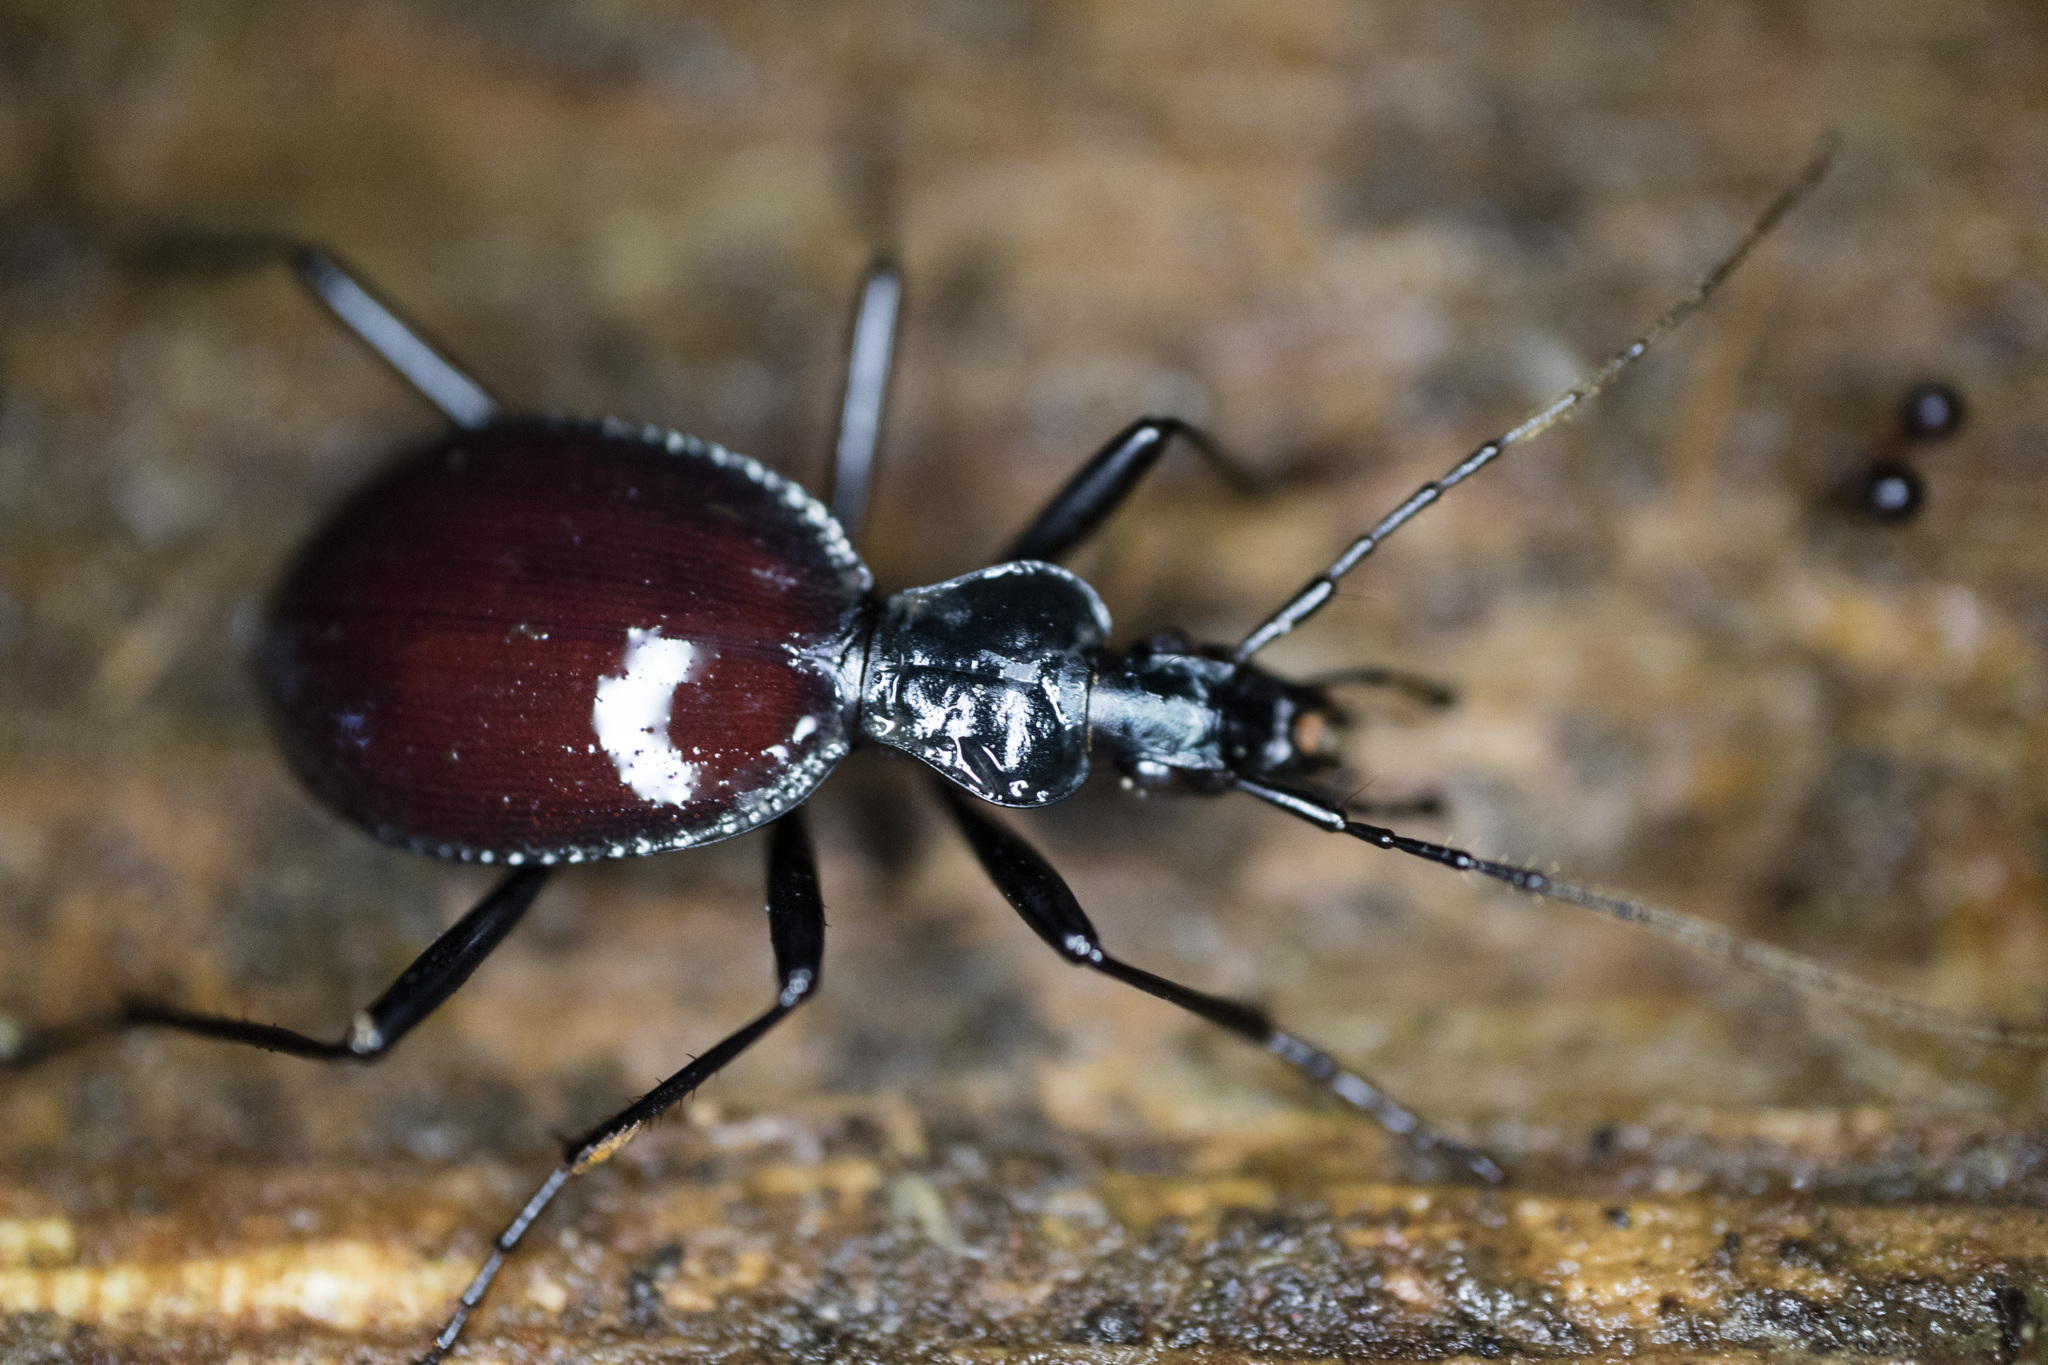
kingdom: Animalia
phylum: Arthropoda
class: Insecta
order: Coleoptera
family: Carabidae
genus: Scaphinotus
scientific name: Scaphinotus angusticollis
